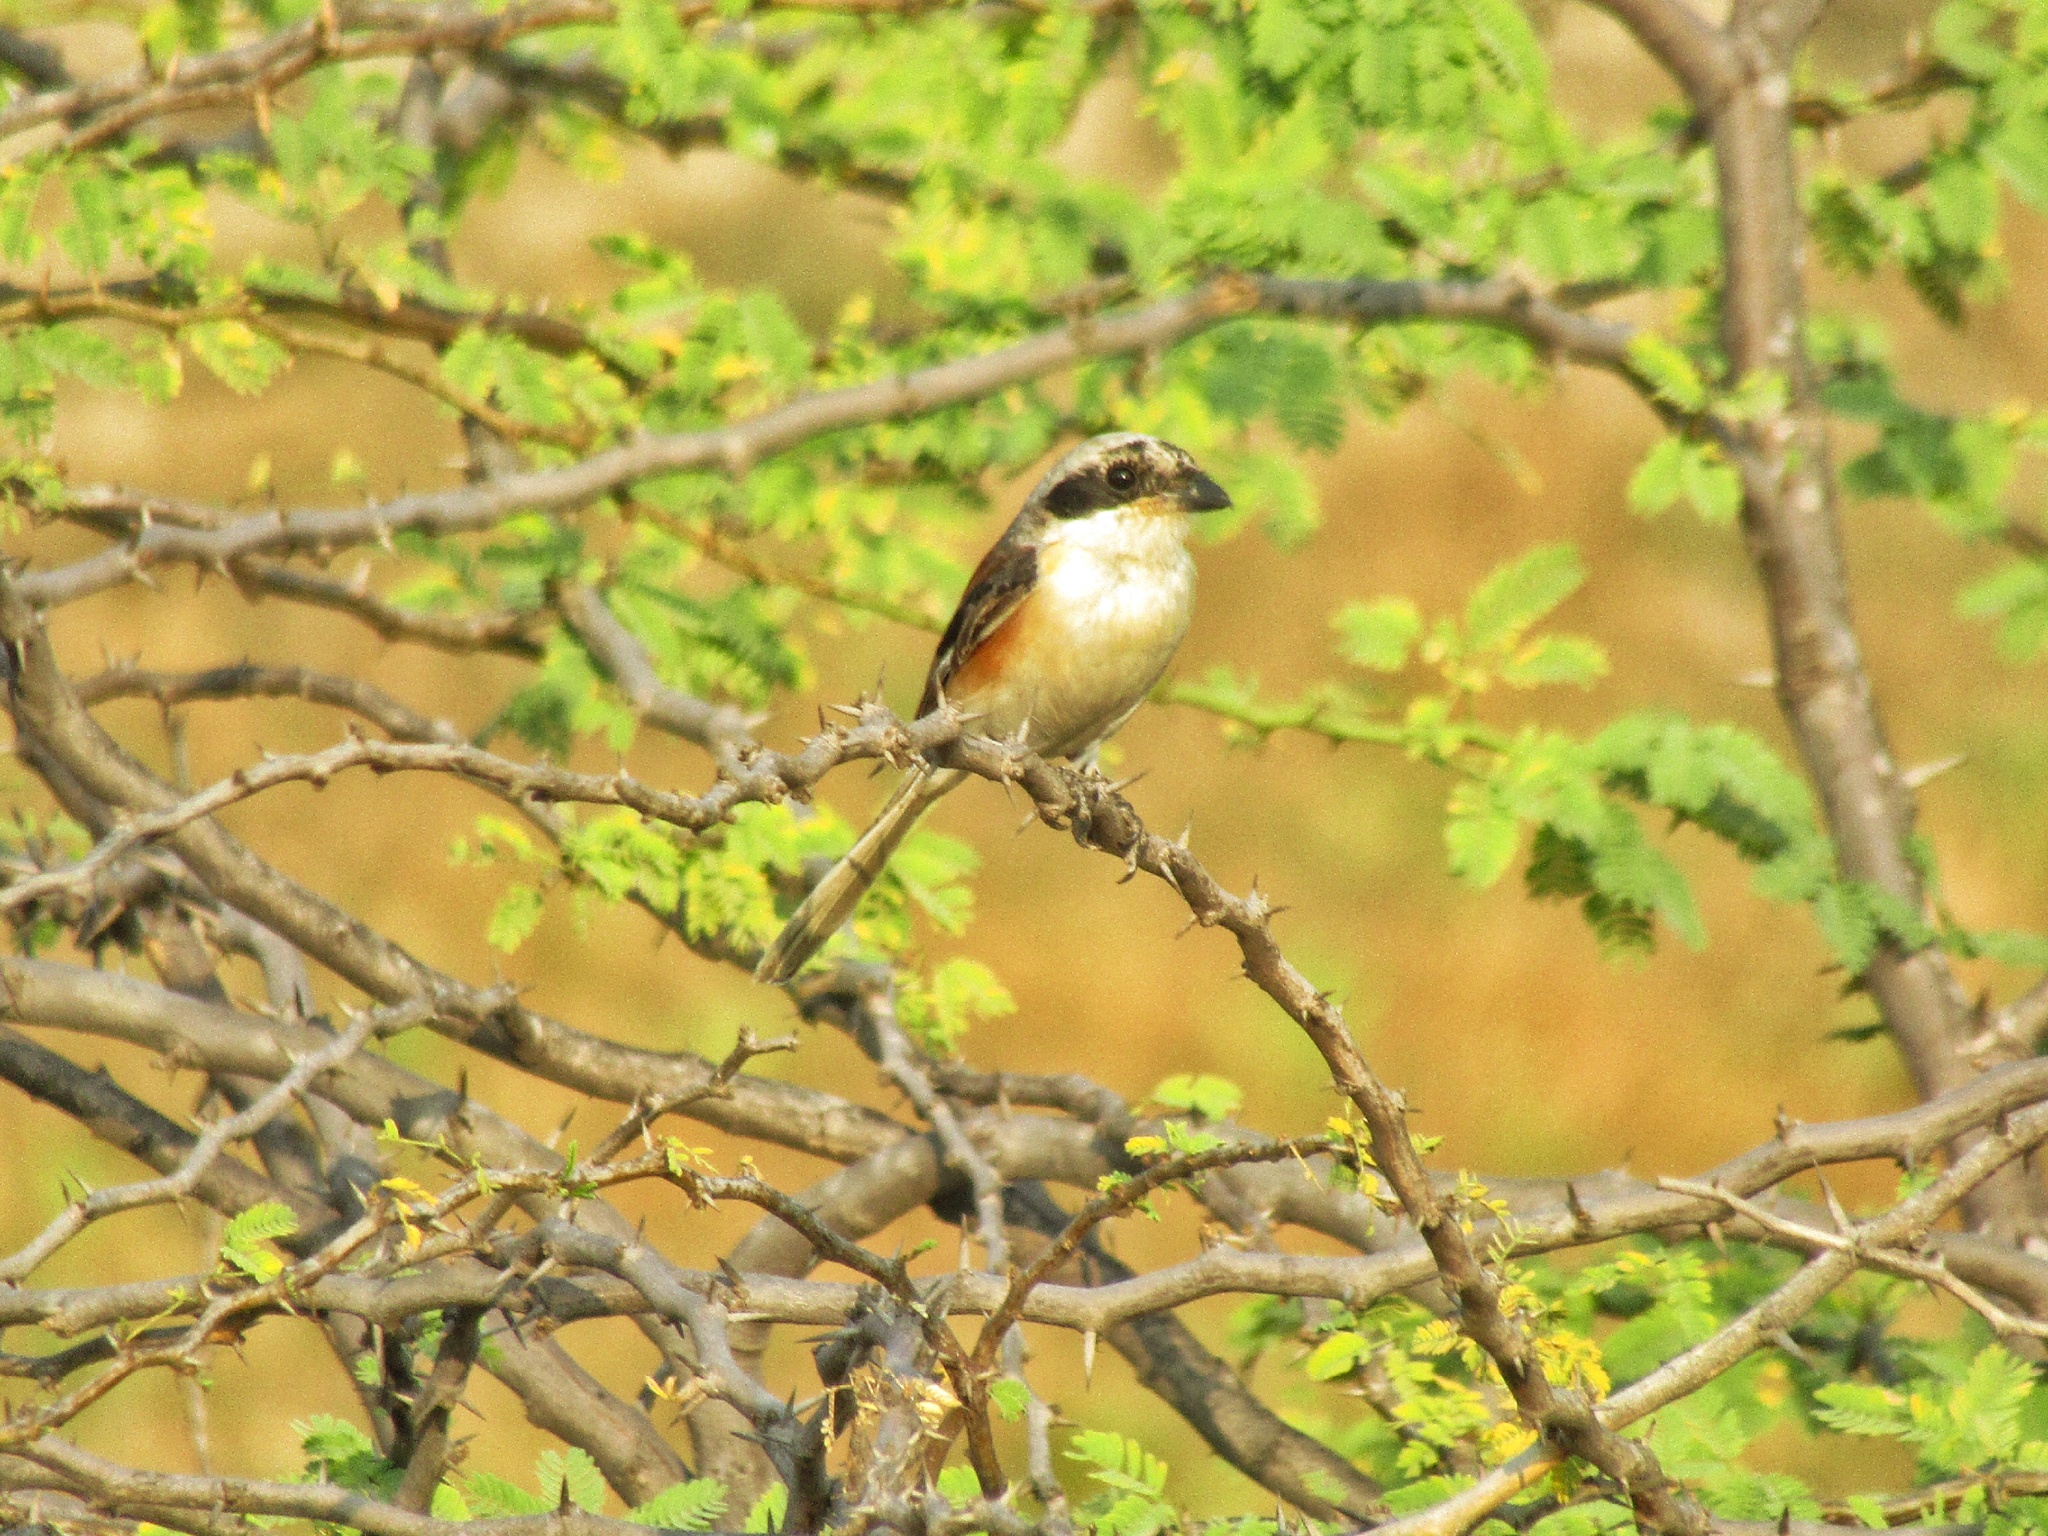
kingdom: Animalia
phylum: Chordata
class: Aves
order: Passeriformes
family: Laniidae
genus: Lanius
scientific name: Lanius vittatus
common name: Bay-backed shrike
